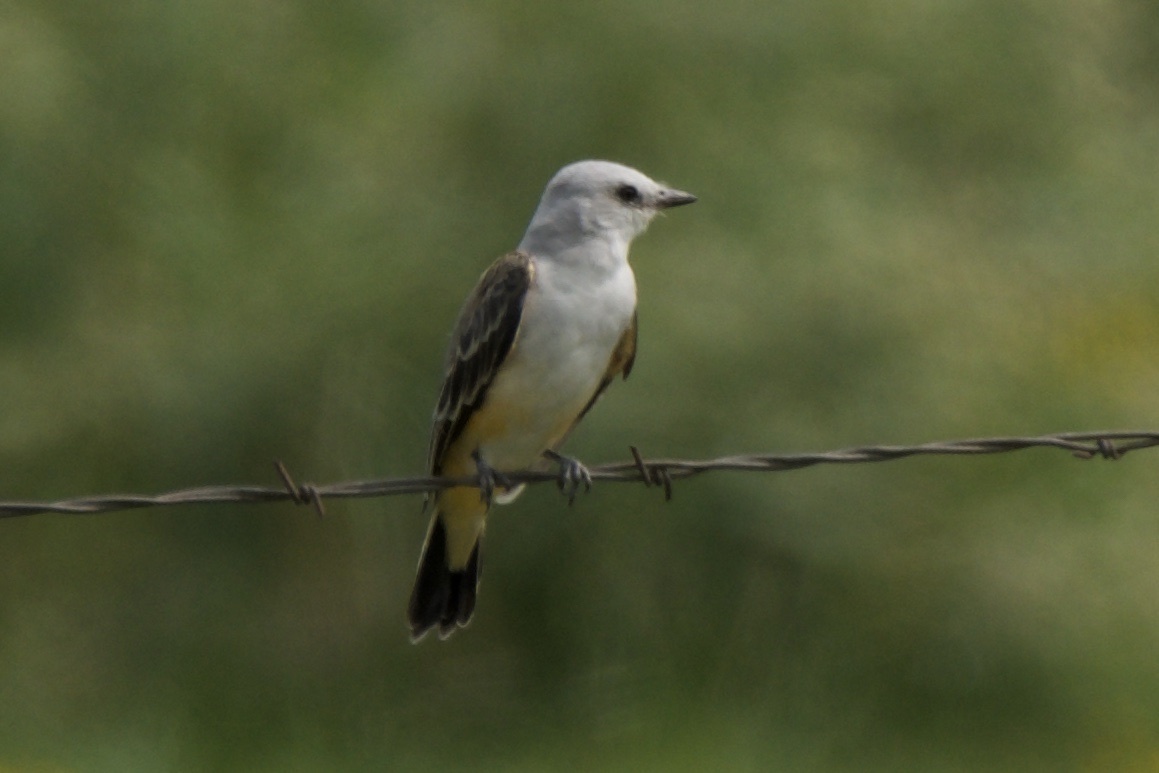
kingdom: Animalia
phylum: Chordata
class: Aves
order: Passeriformes
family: Tyrannidae
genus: Tyrannus
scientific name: Tyrannus forficatus
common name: Scissor-tailed flycatcher
